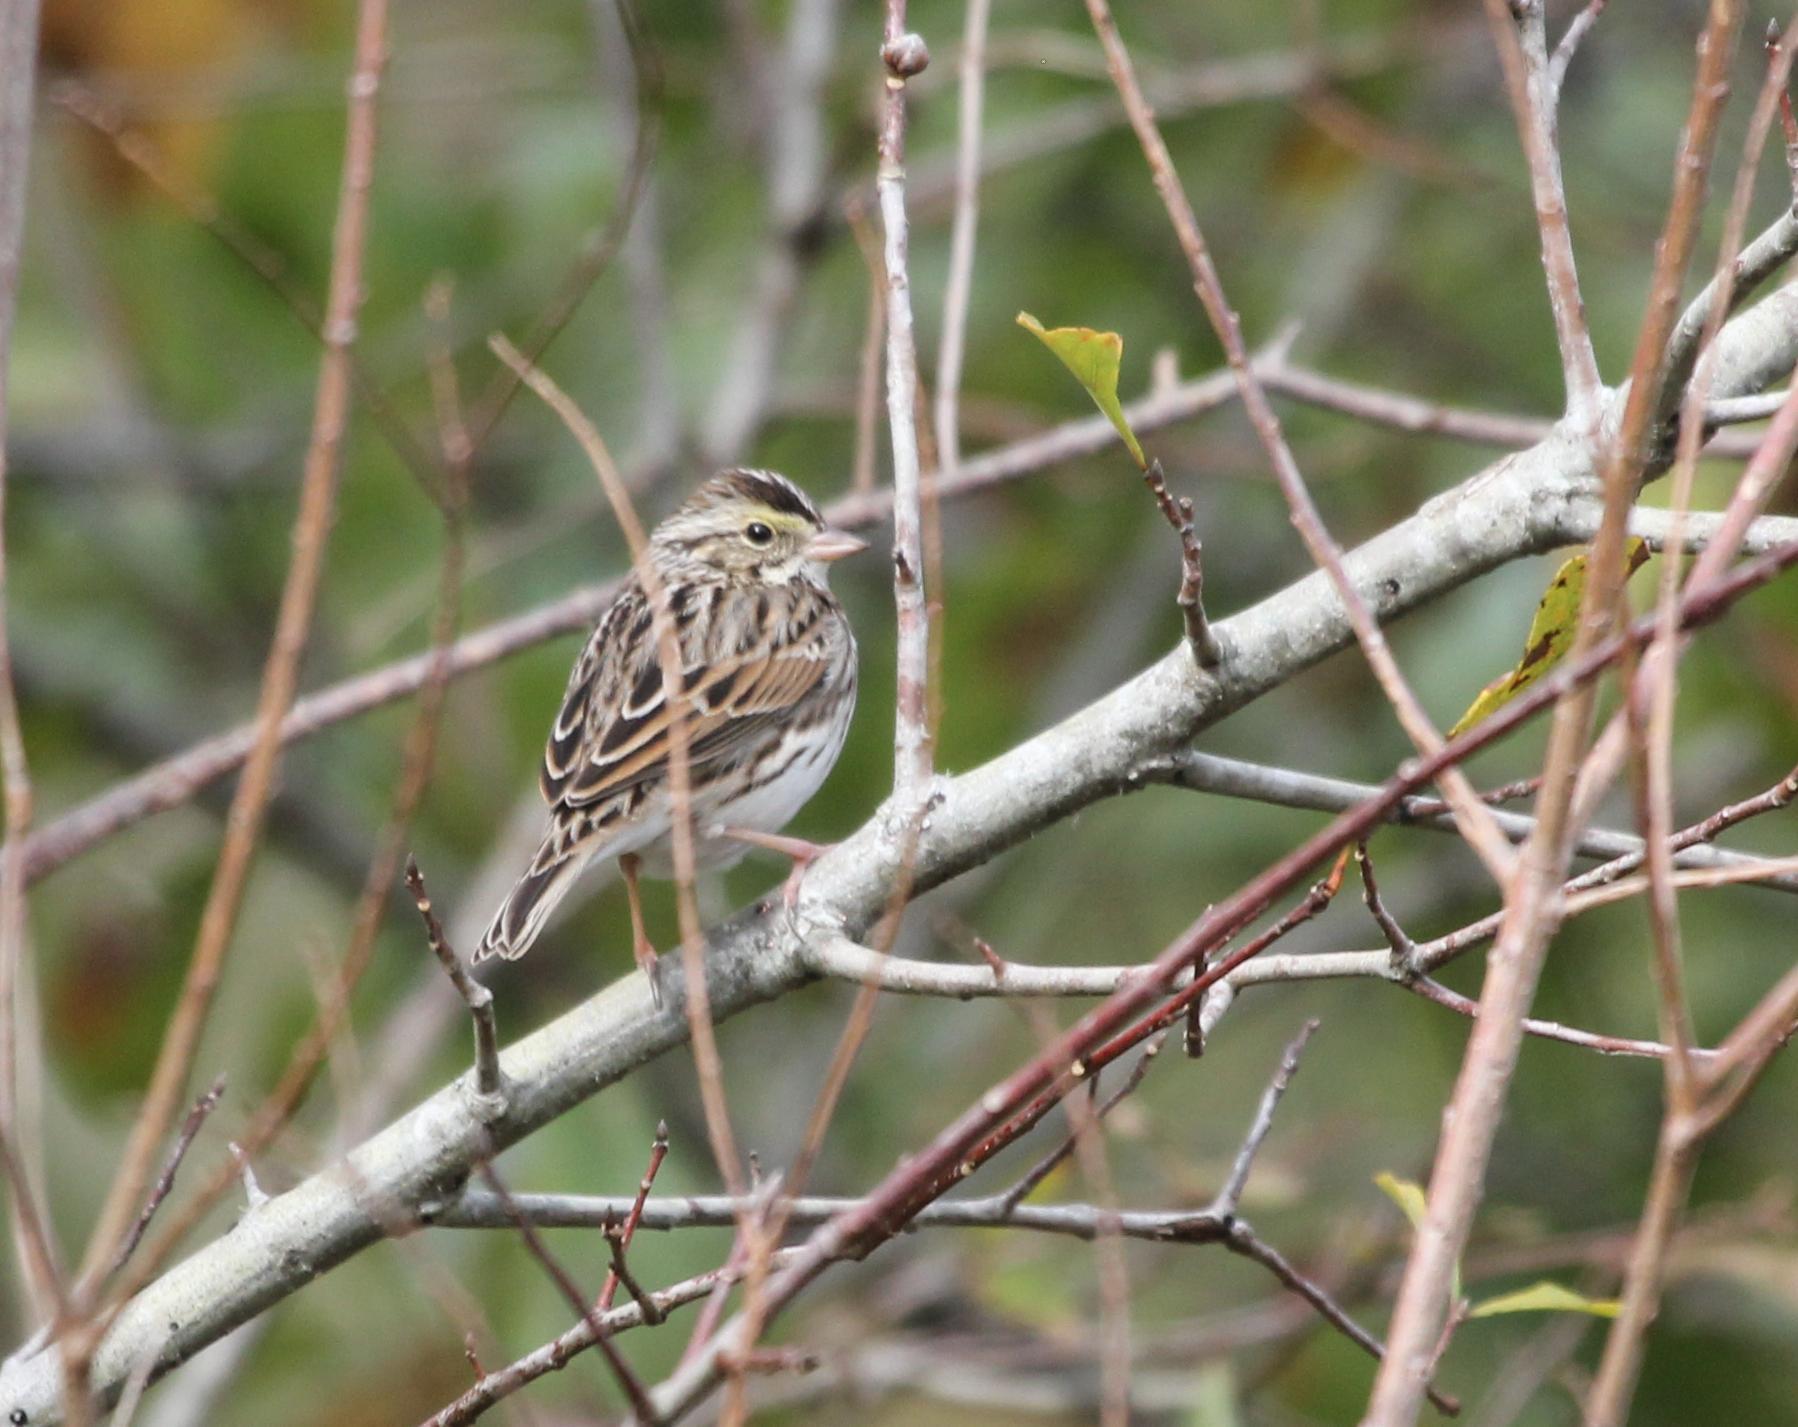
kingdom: Animalia
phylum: Chordata
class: Aves
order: Passeriformes
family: Passerellidae
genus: Passerculus
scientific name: Passerculus sandwichensis
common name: Savannah sparrow
